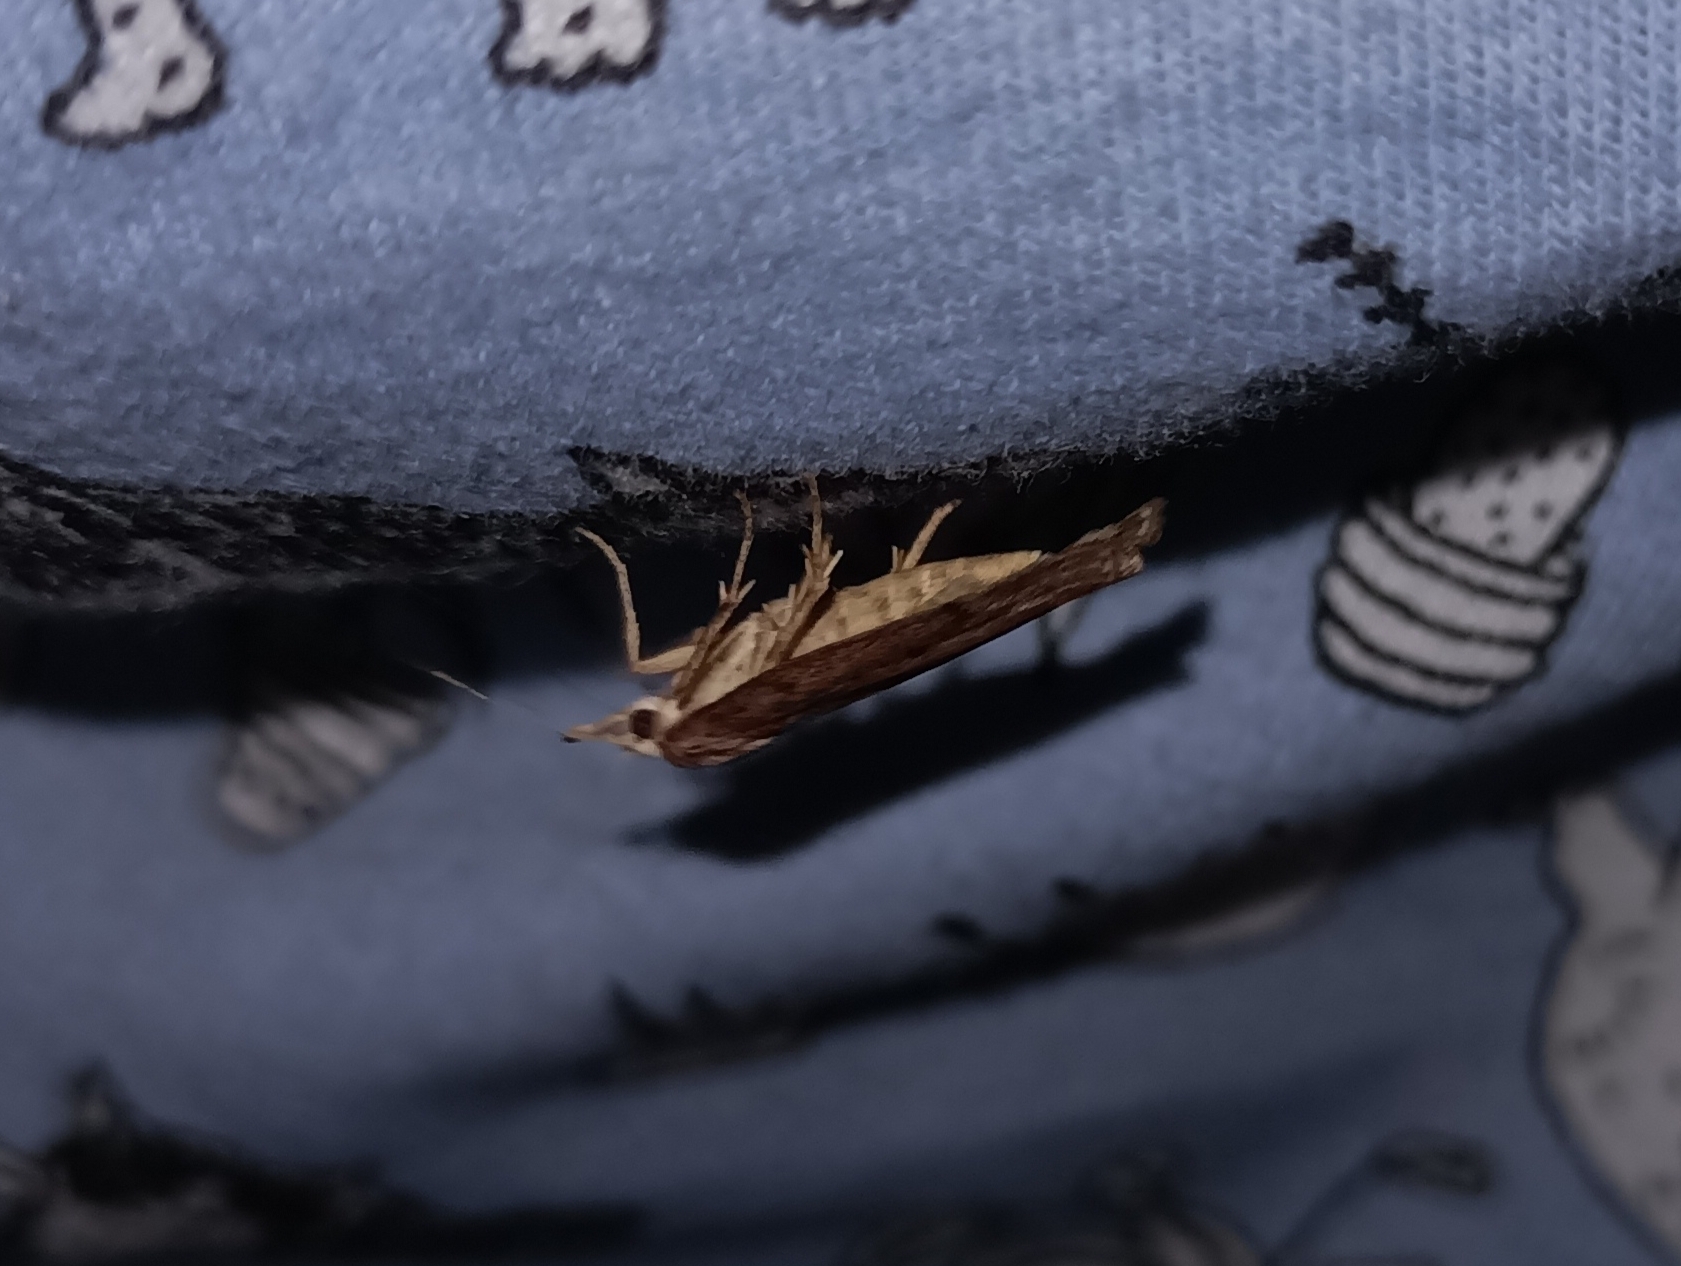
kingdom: Animalia
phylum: Arthropoda
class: Insecta
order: Lepidoptera
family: Pyralidae
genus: Aphomia
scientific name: Aphomia sociella
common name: Bee moth
